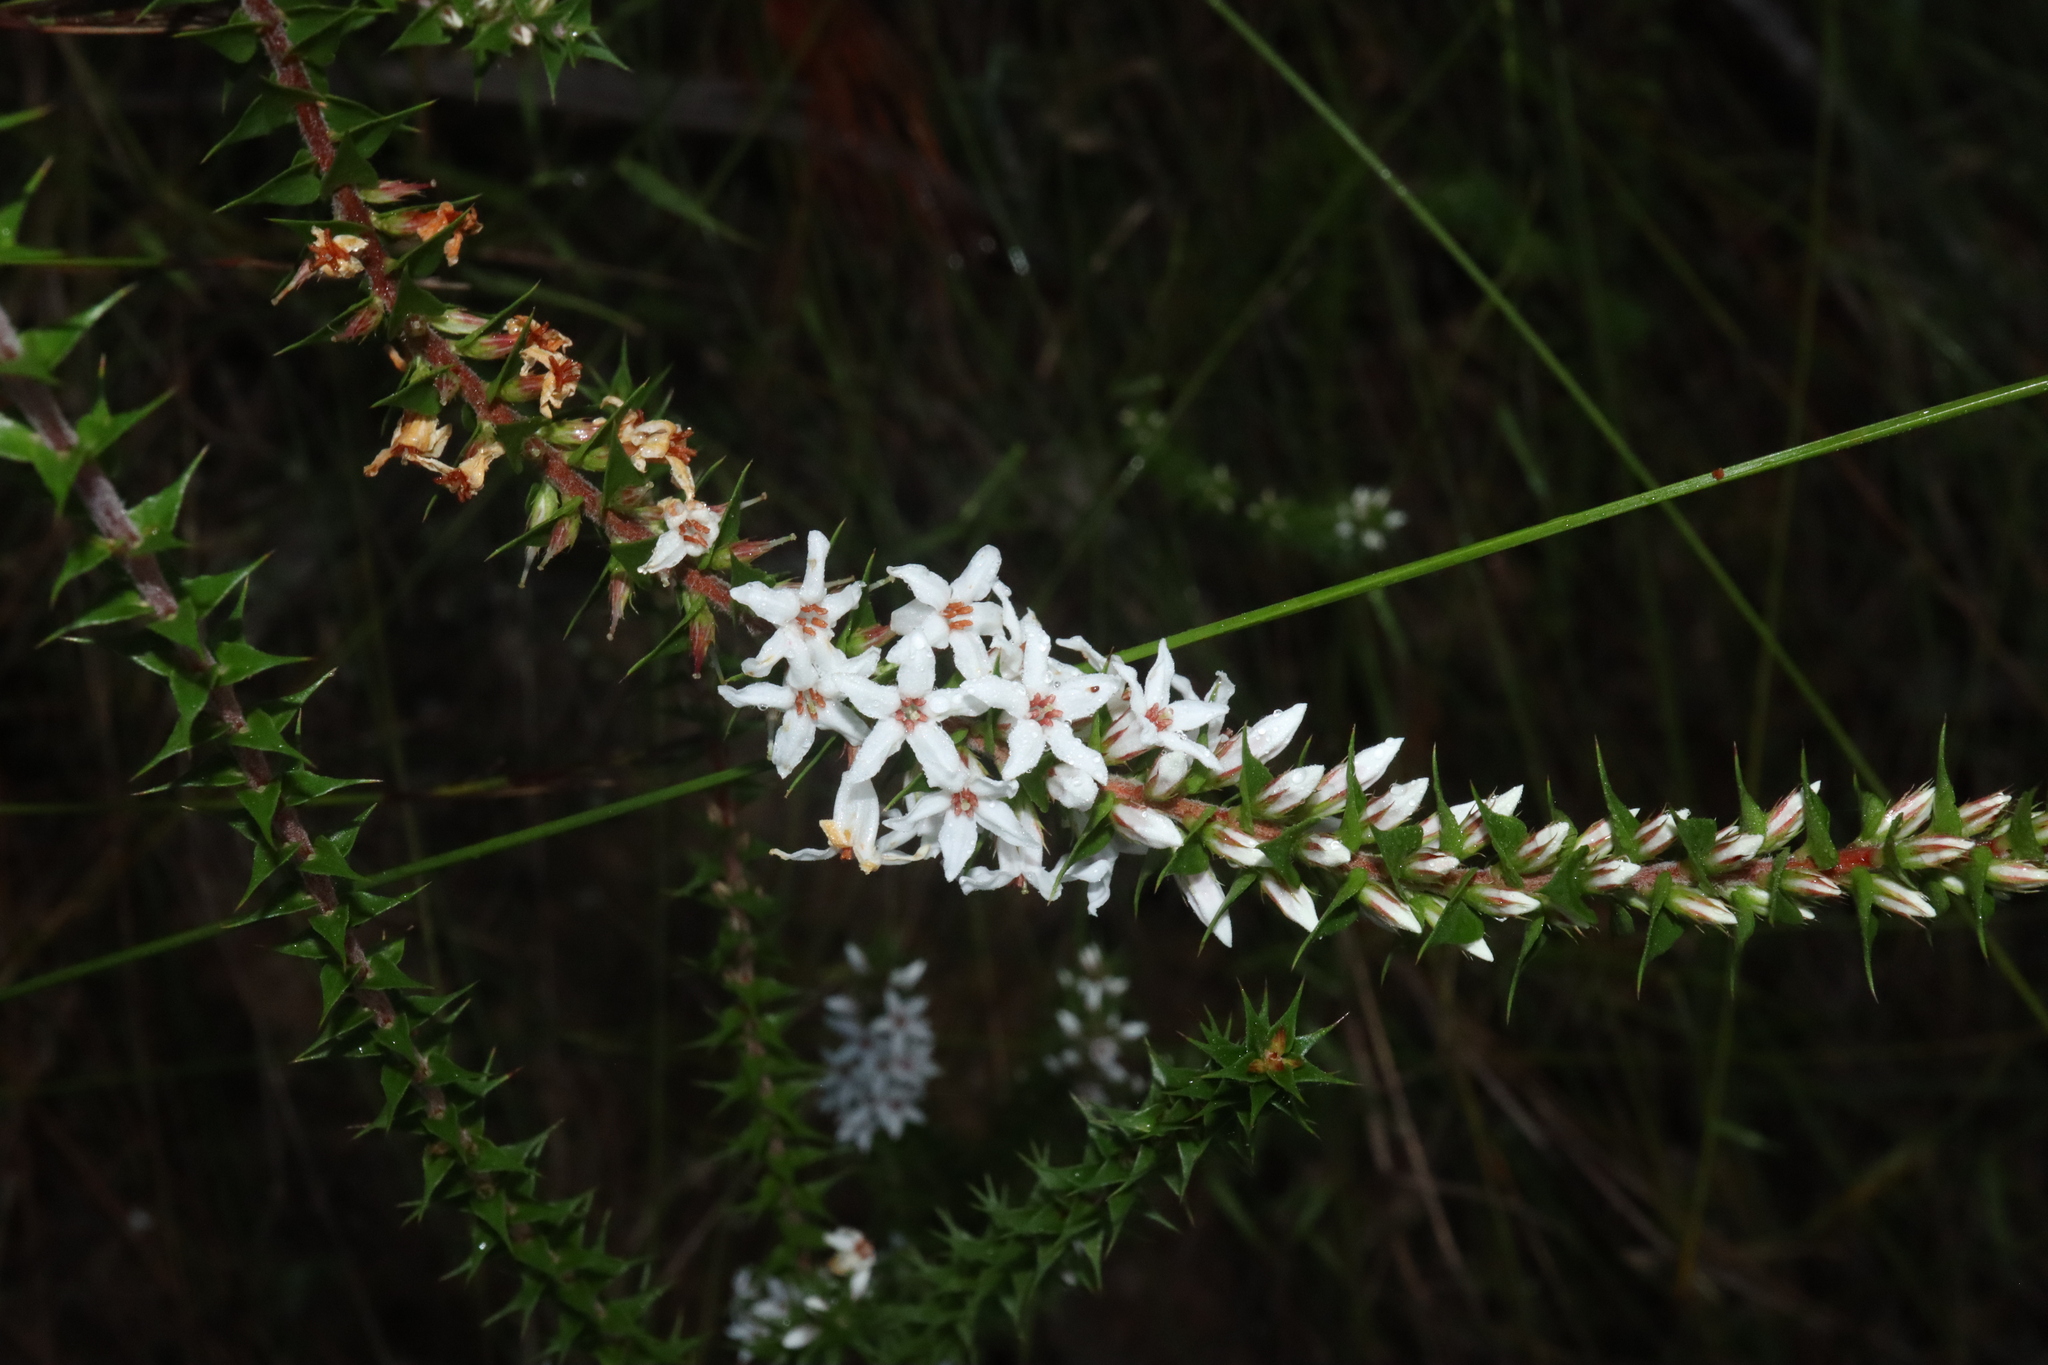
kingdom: Plantae
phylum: Tracheophyta
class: Magnoliopsida
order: Ericales
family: Ericaceae
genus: Epacris
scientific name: Epacris pulchella
